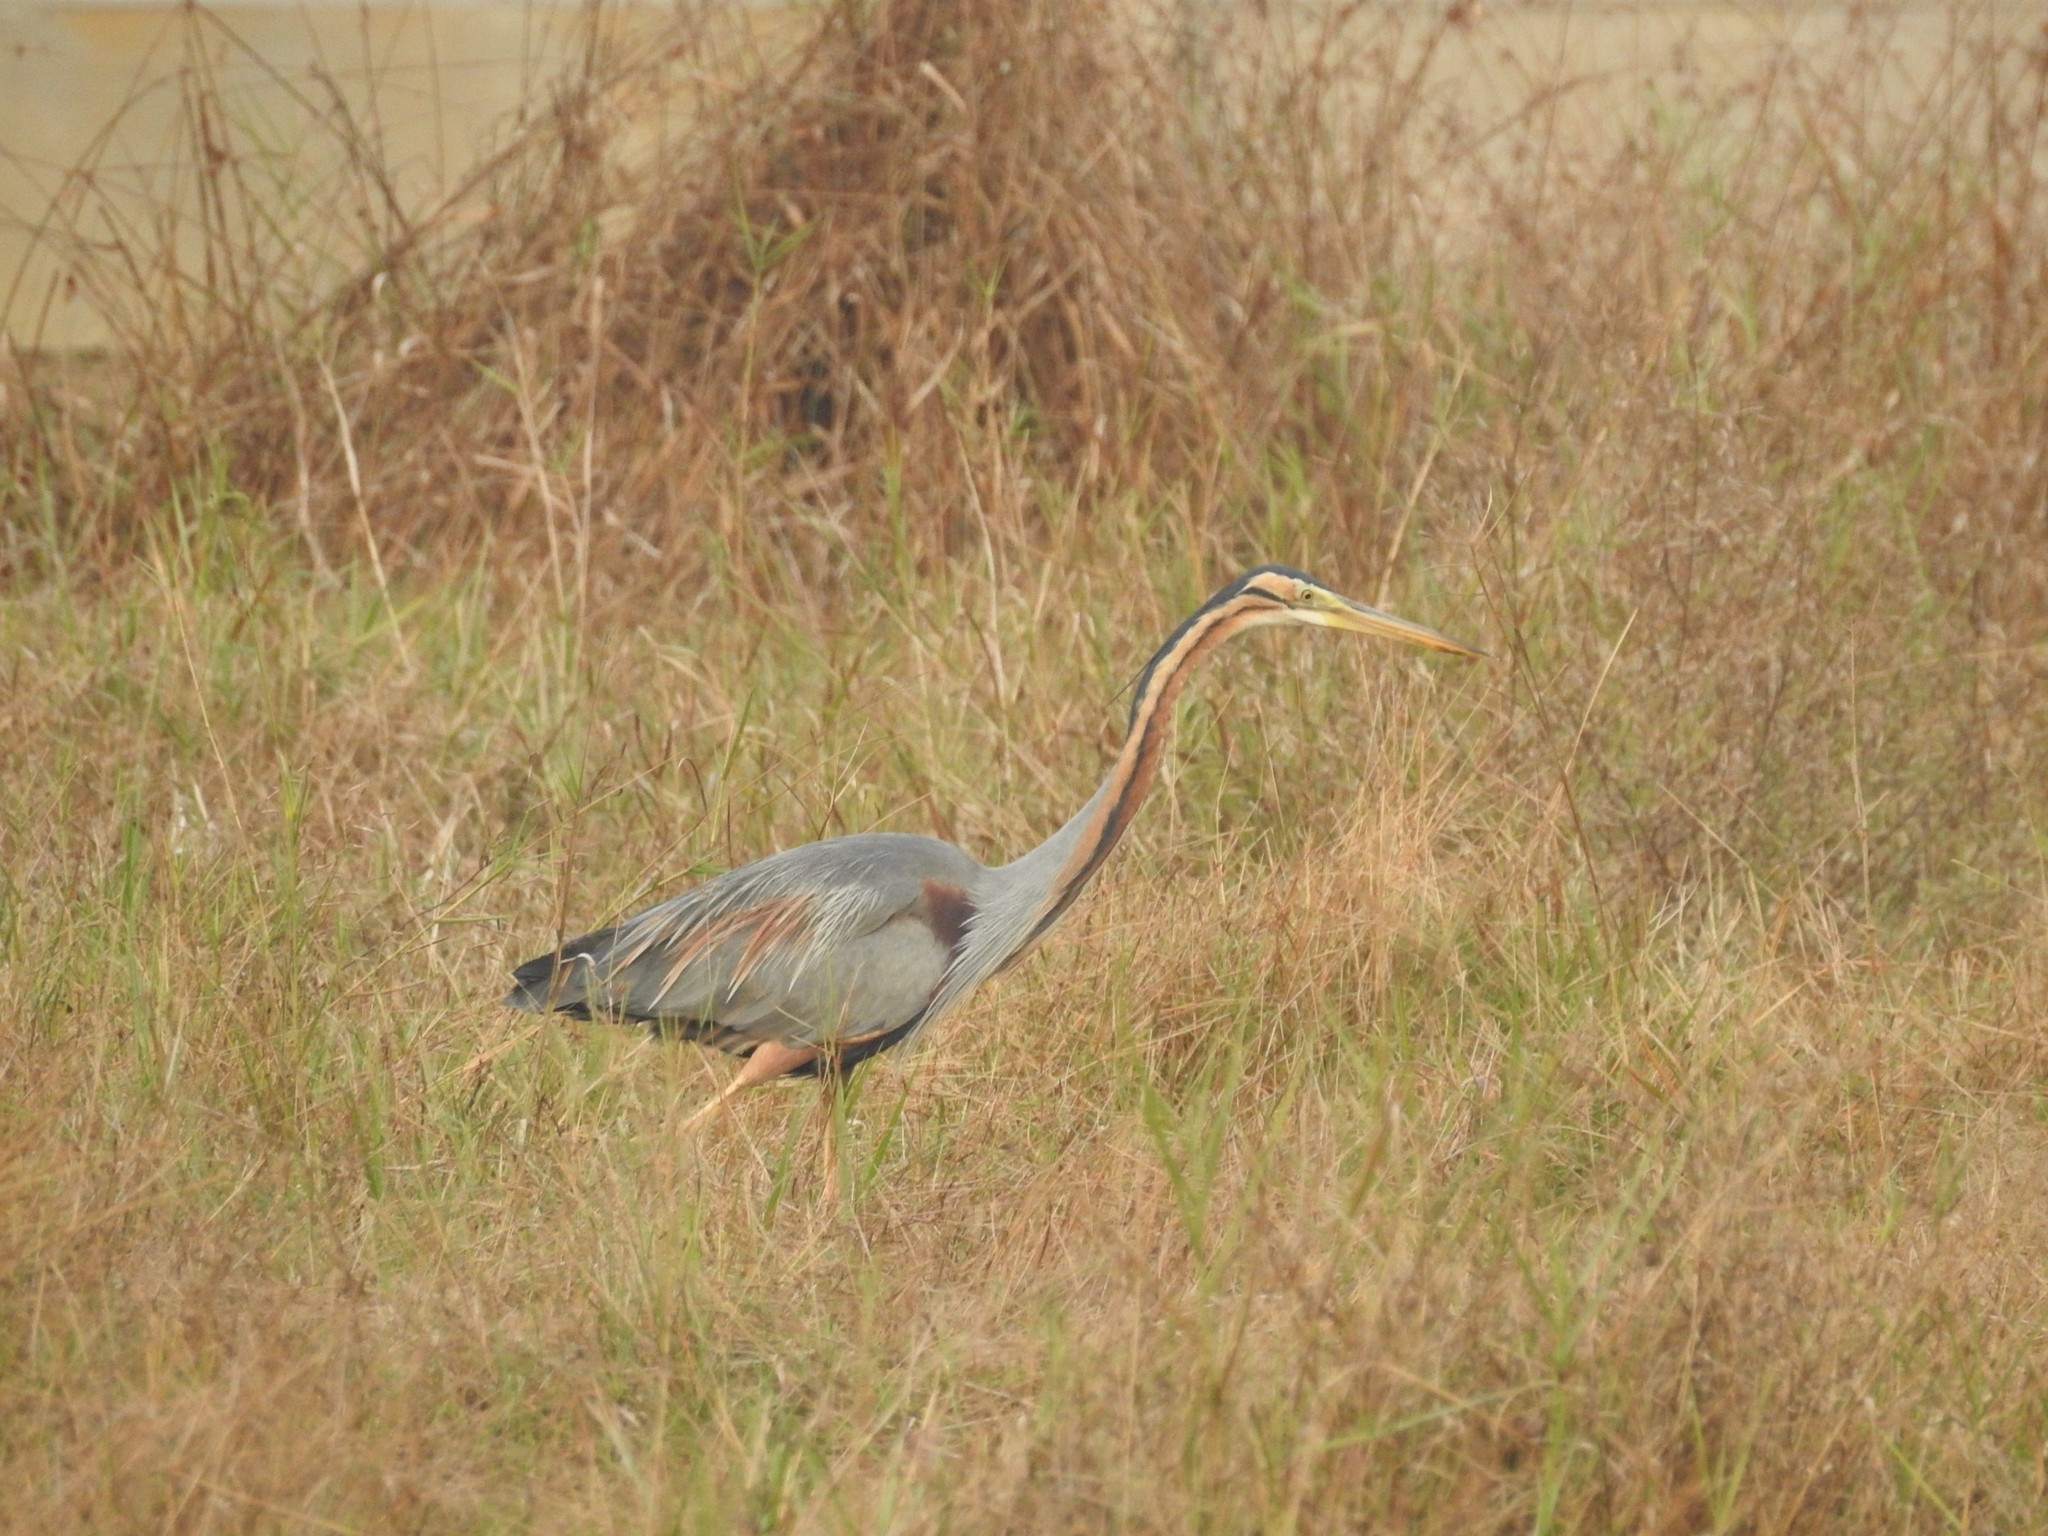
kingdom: Animalia
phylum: Chordata
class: Aves
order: Pelecaniformes
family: Ardeidae
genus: Ardea
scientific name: Ardea purpurea
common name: Purple heron
